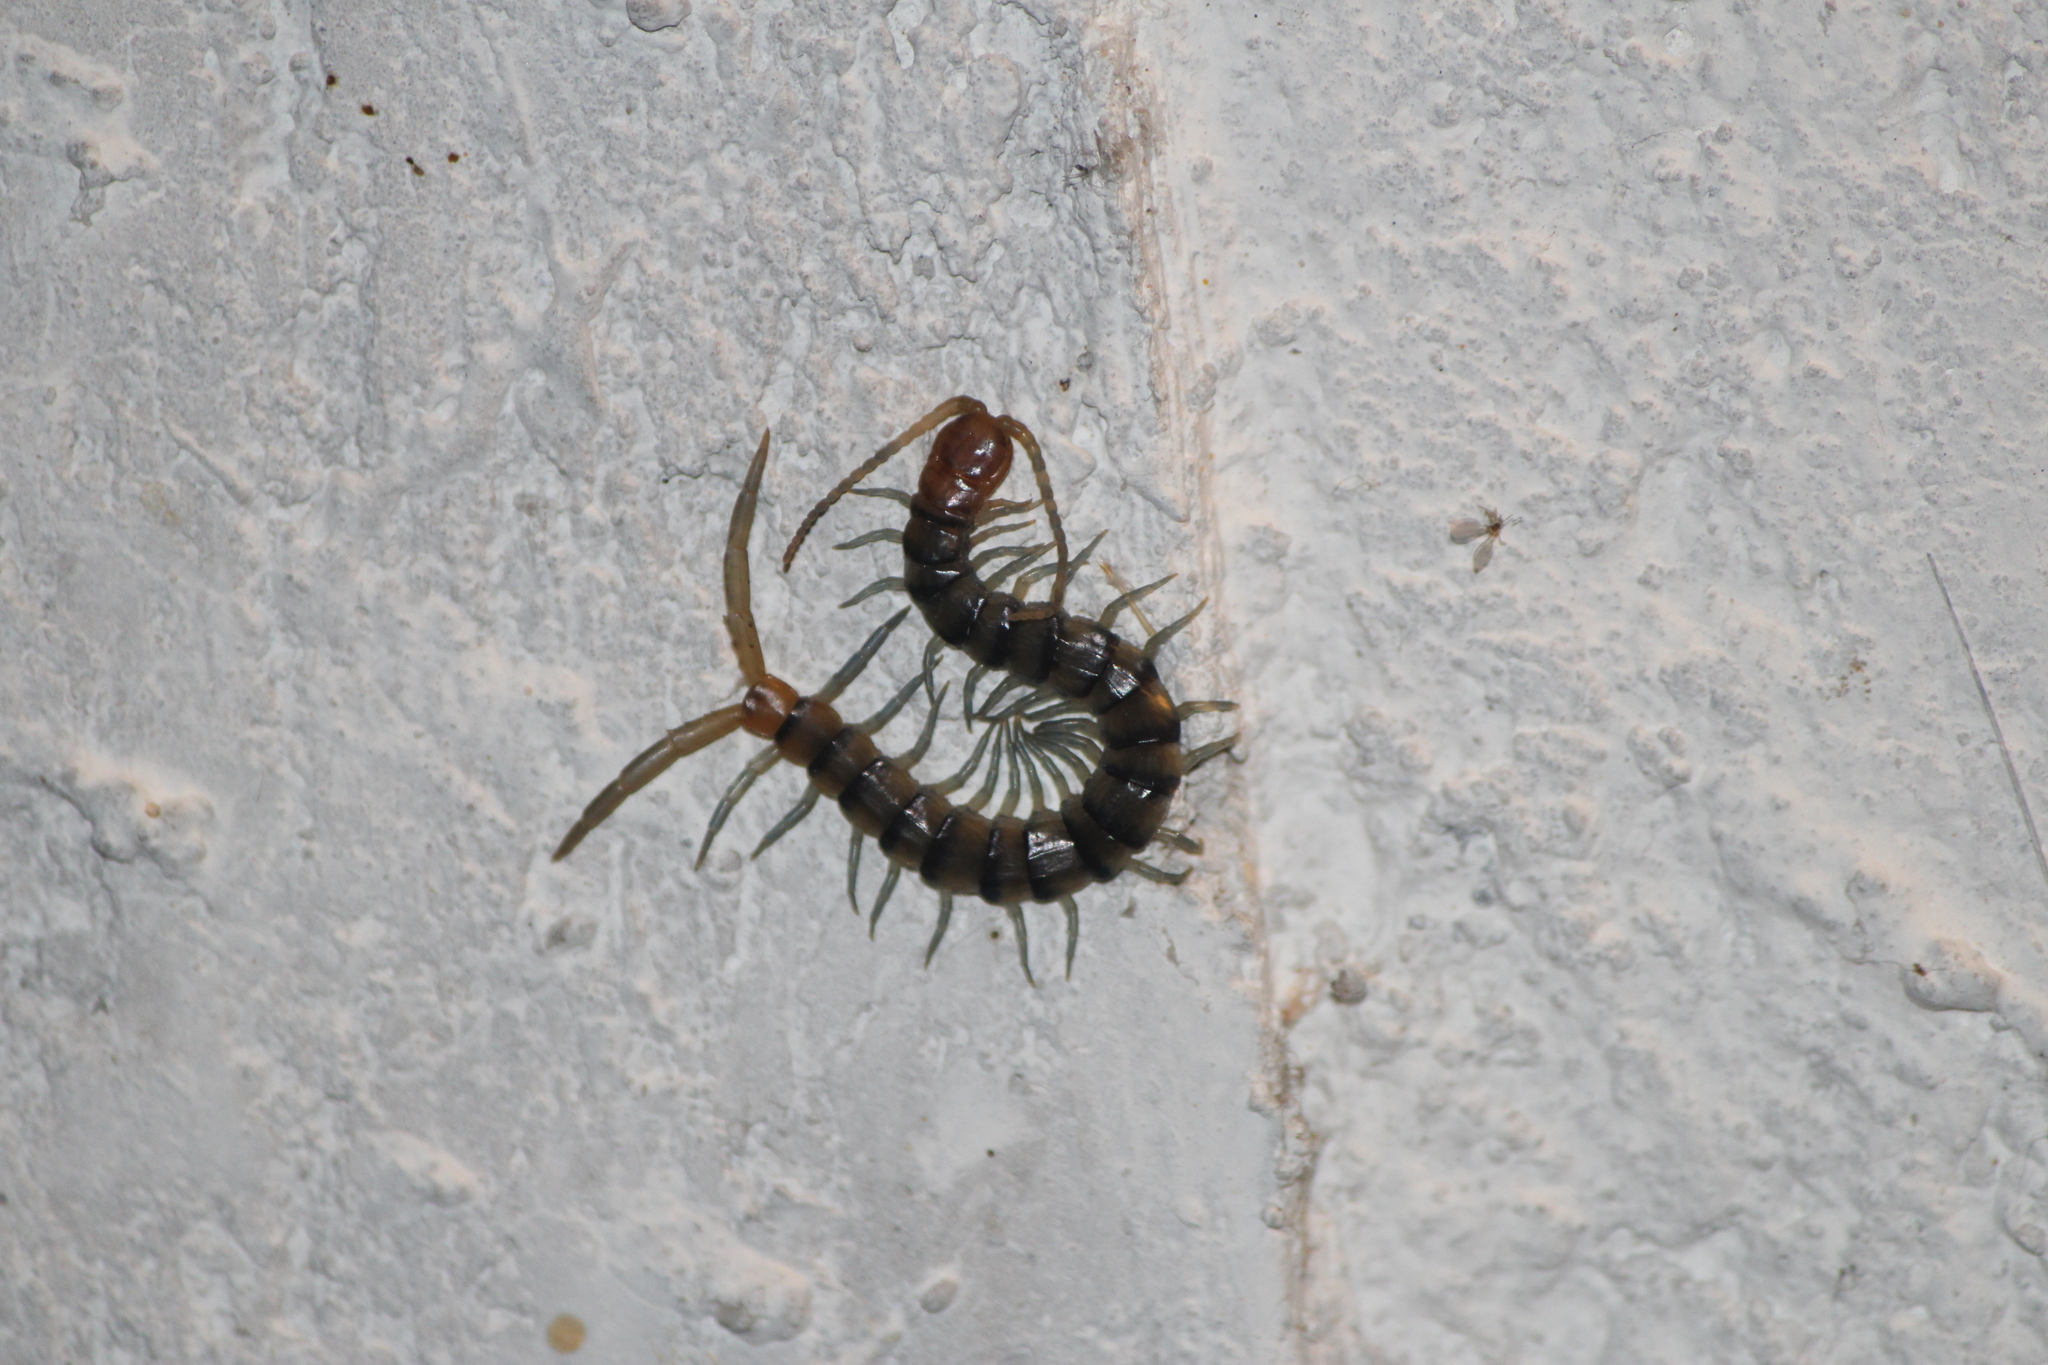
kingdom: Animalia
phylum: Arthropoda
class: Chilopoda
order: Scolopendromorpha
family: Scolopendridae
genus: Scolopendra
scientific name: Scolopendra polymorpha
